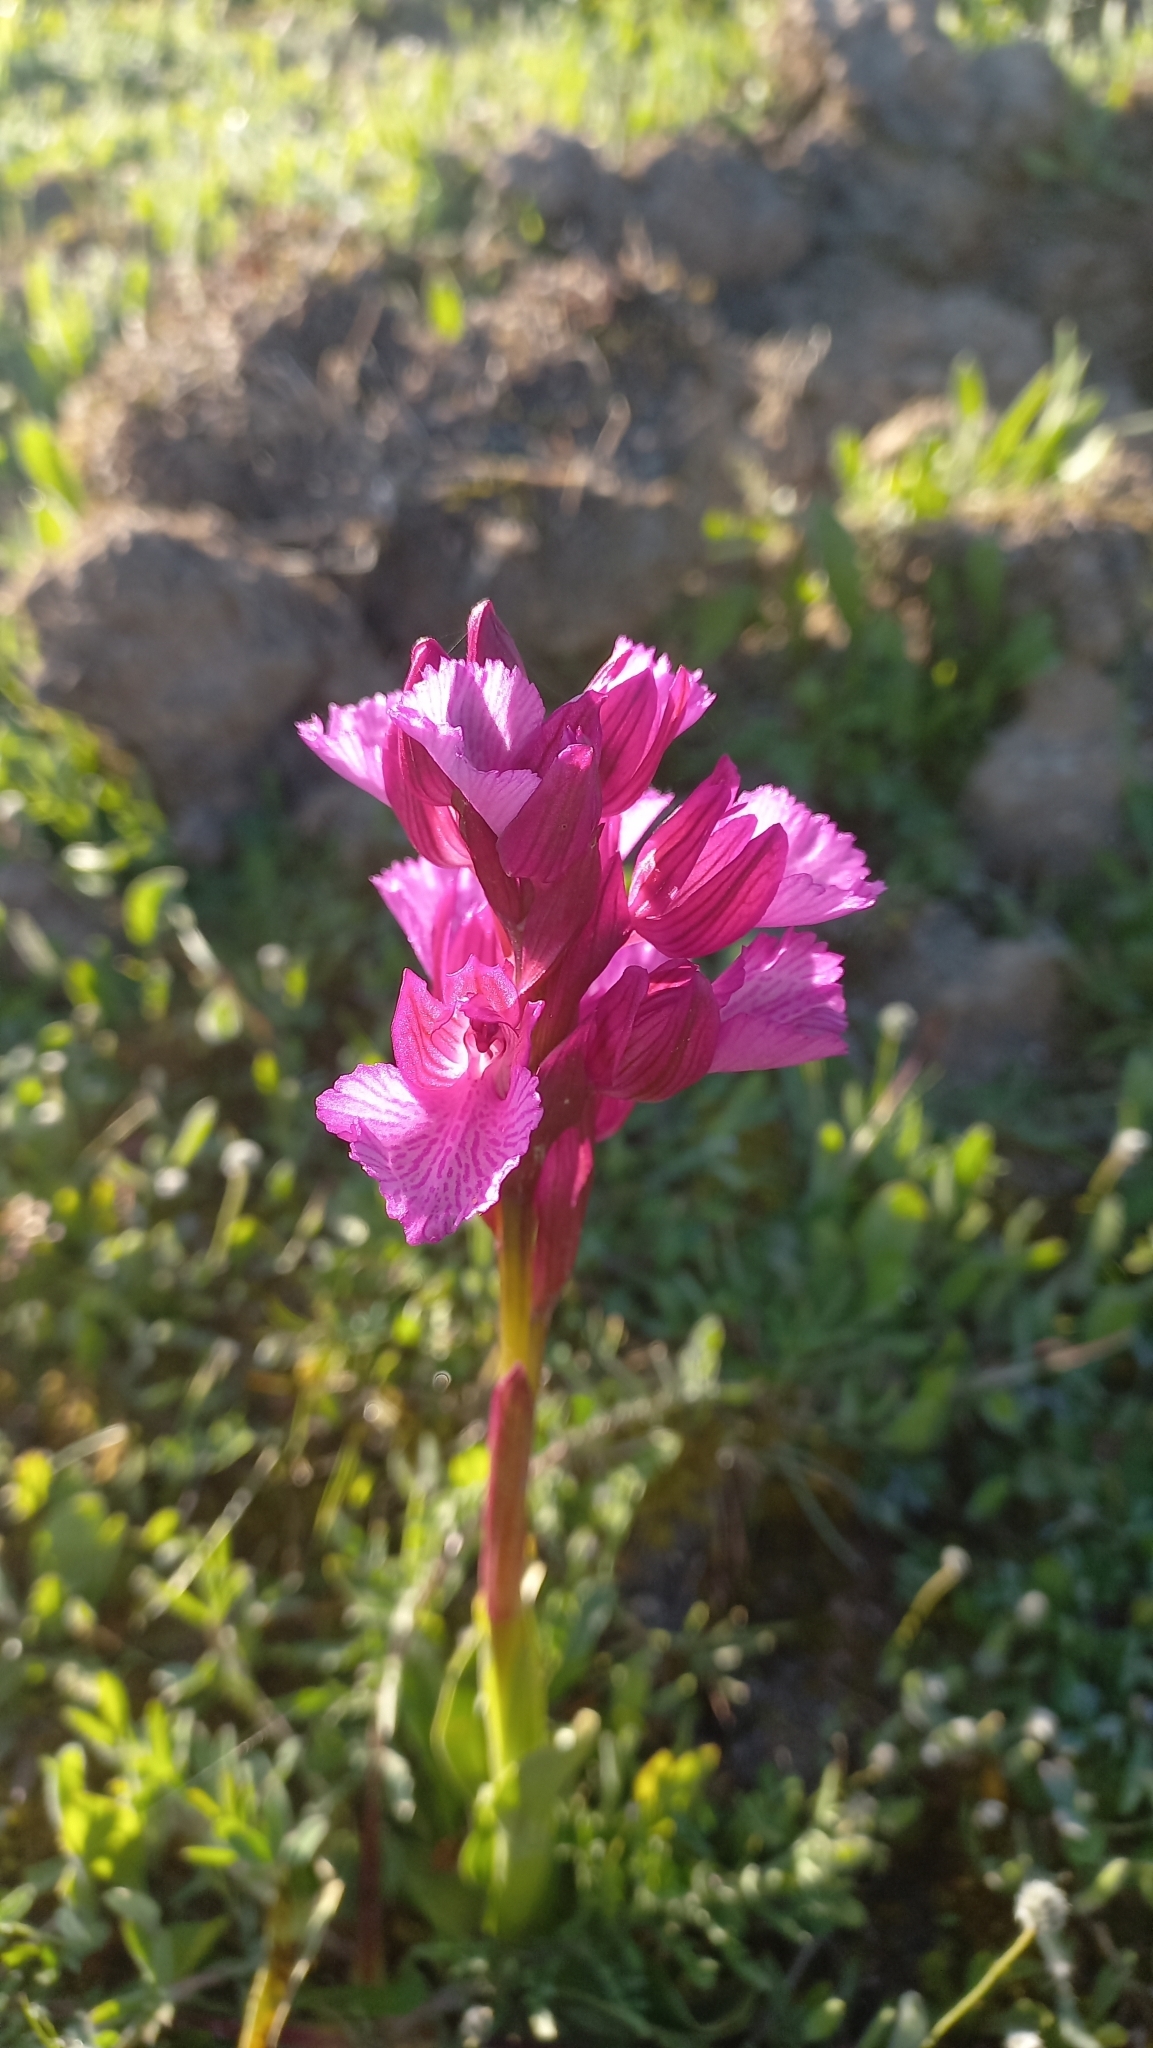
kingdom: Plantae
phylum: Tracheophyta
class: Liliopsida
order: Asparagales
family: Orchidaceae
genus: Anacamptis
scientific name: Anacamptis papilionacea
